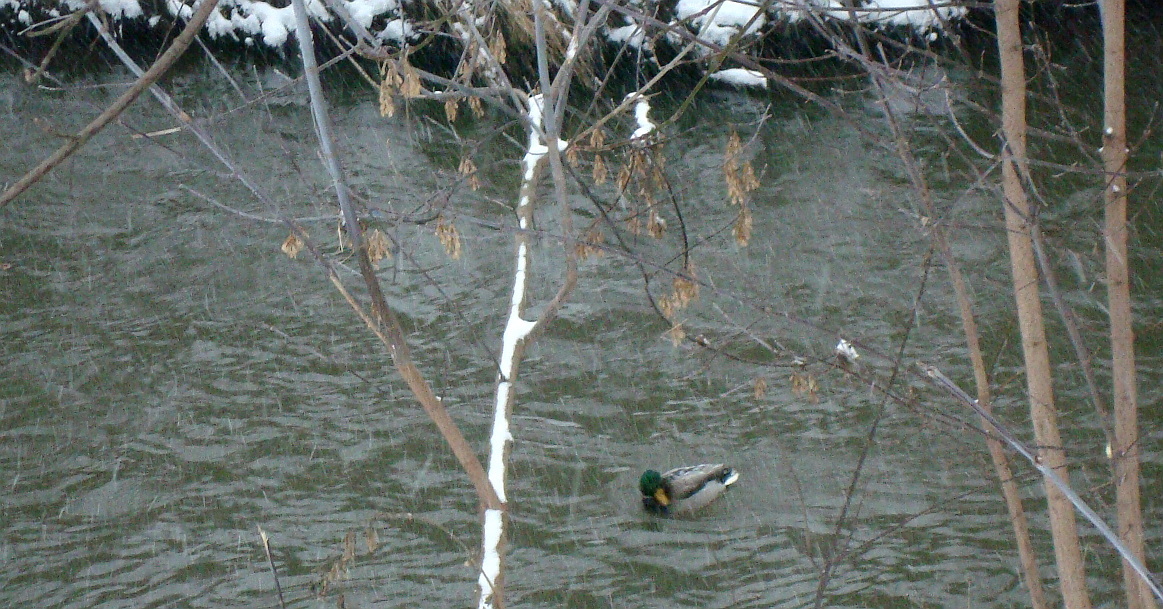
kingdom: Plantae
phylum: Tracheophyta
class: Magnoliopsida
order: Sapindales
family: Sapindaceae
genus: Acer
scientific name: Acer negundo
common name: Ashleaf maple
